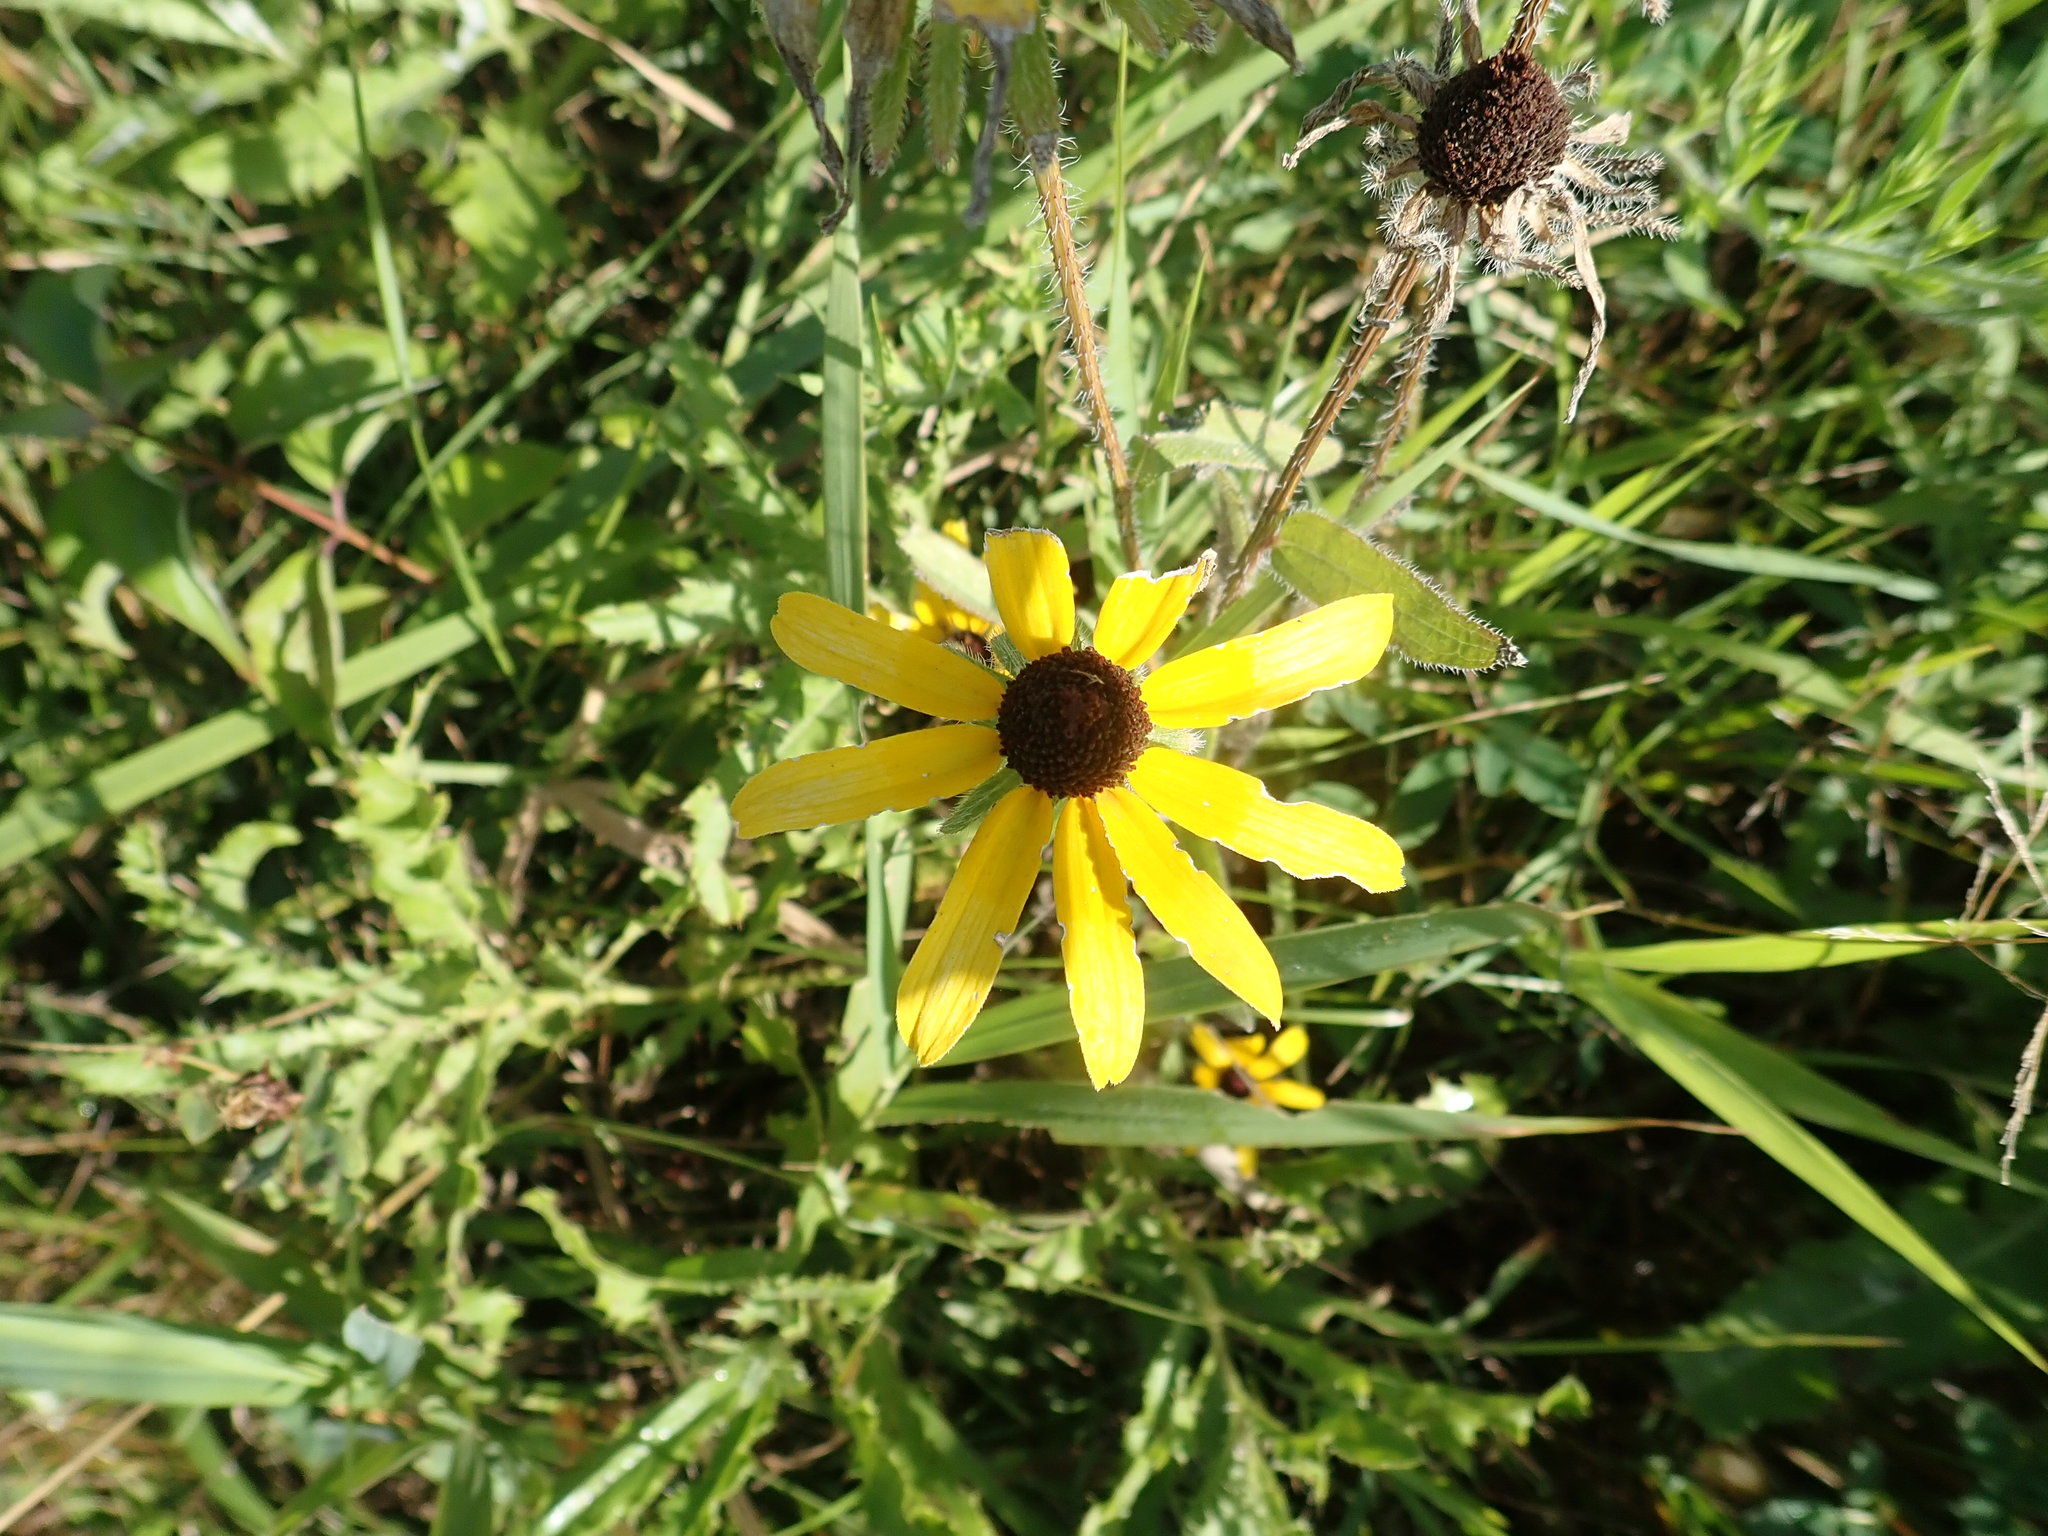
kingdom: Plantae
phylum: Tracheophyta
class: Magnoliopsida
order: Asterales
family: Asteraceae
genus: Rudbeckia
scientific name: Rudbeckia triloba
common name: Thin-leaved coneflower
